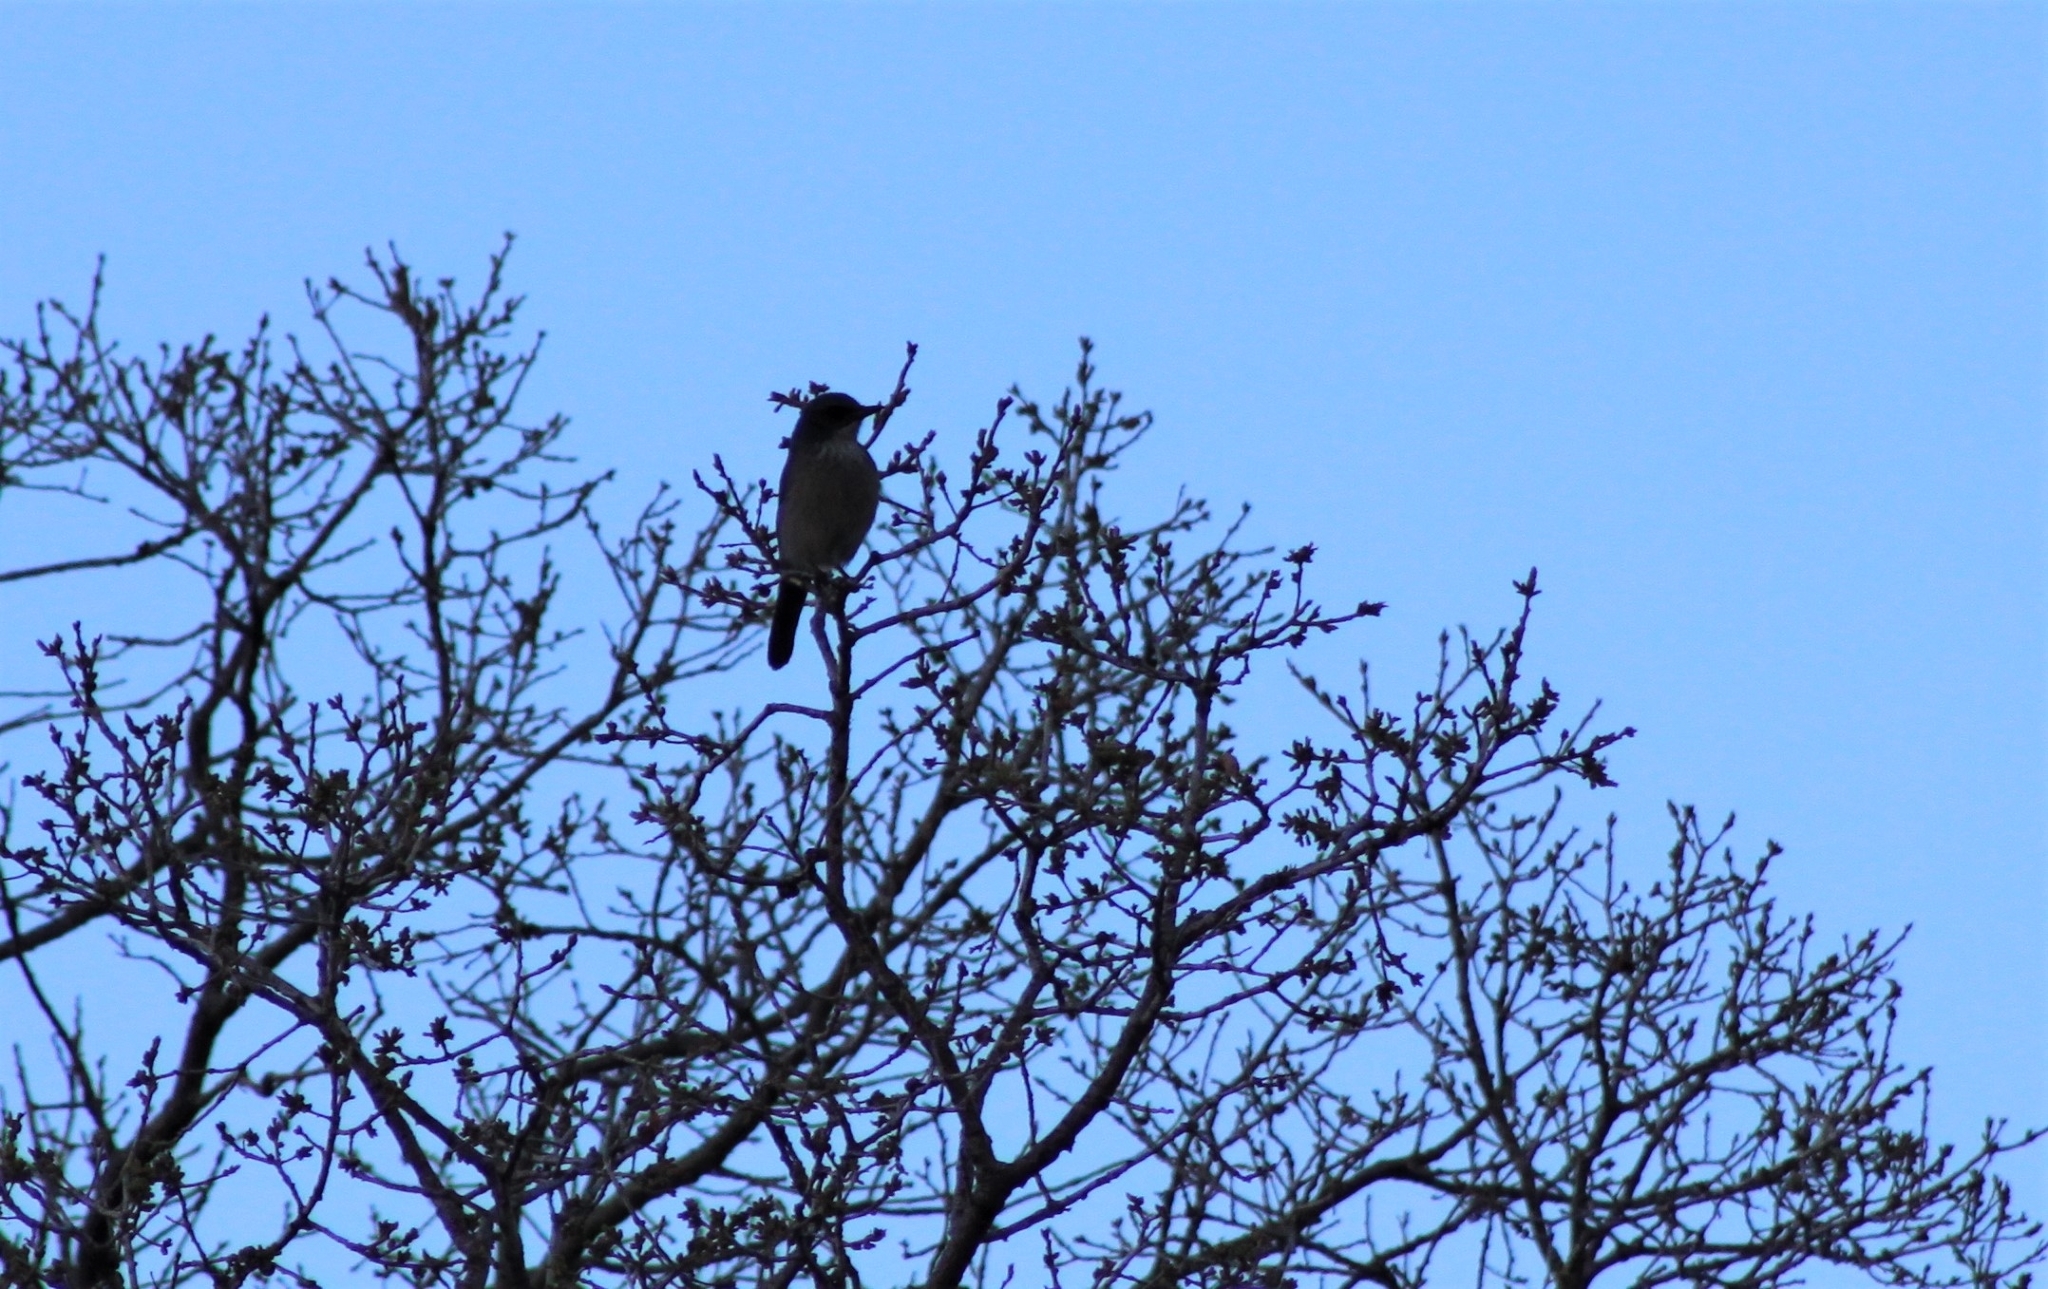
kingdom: Animalia
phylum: Chordata
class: Aves
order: Passeriformes
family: Corvidae
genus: Aphelocoma
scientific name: Aphelocoma woodhouseii
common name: Woodhouse's scrub-jay
